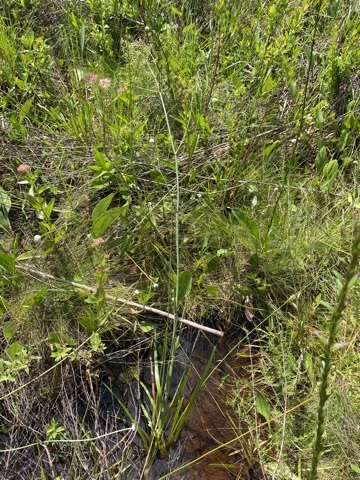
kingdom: Plantae
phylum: Tracheophyta
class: Magnoliopsida
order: Apiales
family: Apiaceae
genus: Tiedemannia
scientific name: Tiedemannia filiformis
